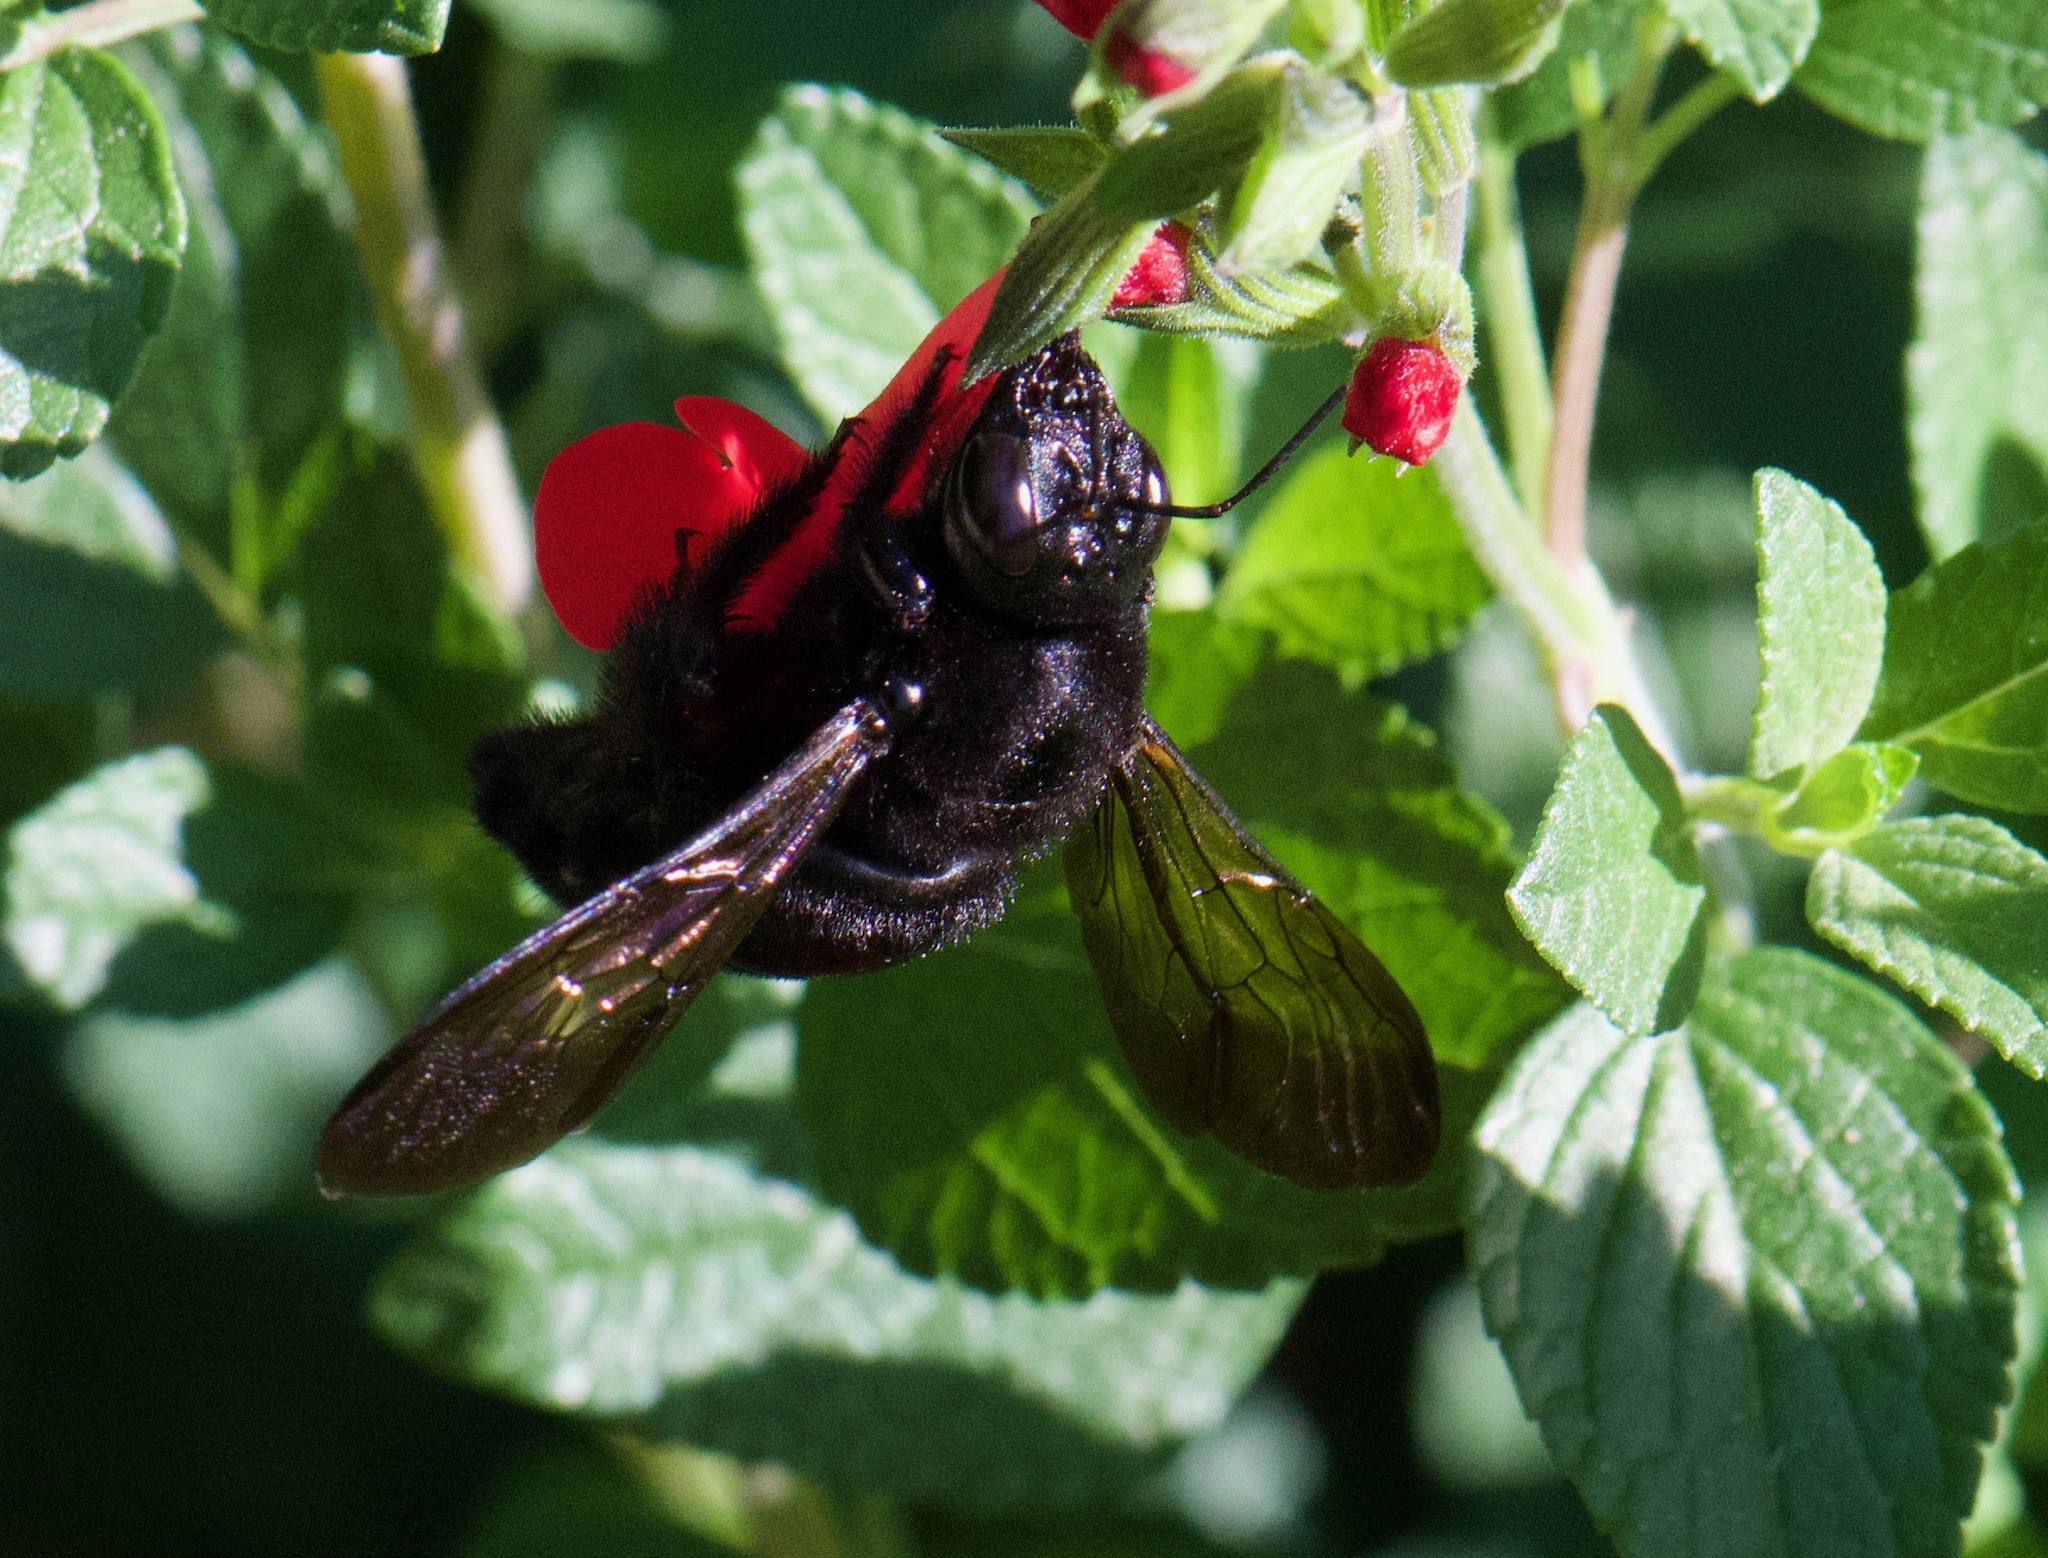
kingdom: Animalia
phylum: Arthropoda
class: Insecta
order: Hymenoptera
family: Apidae
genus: Xylocopa
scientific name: Xylocopa sonorina
